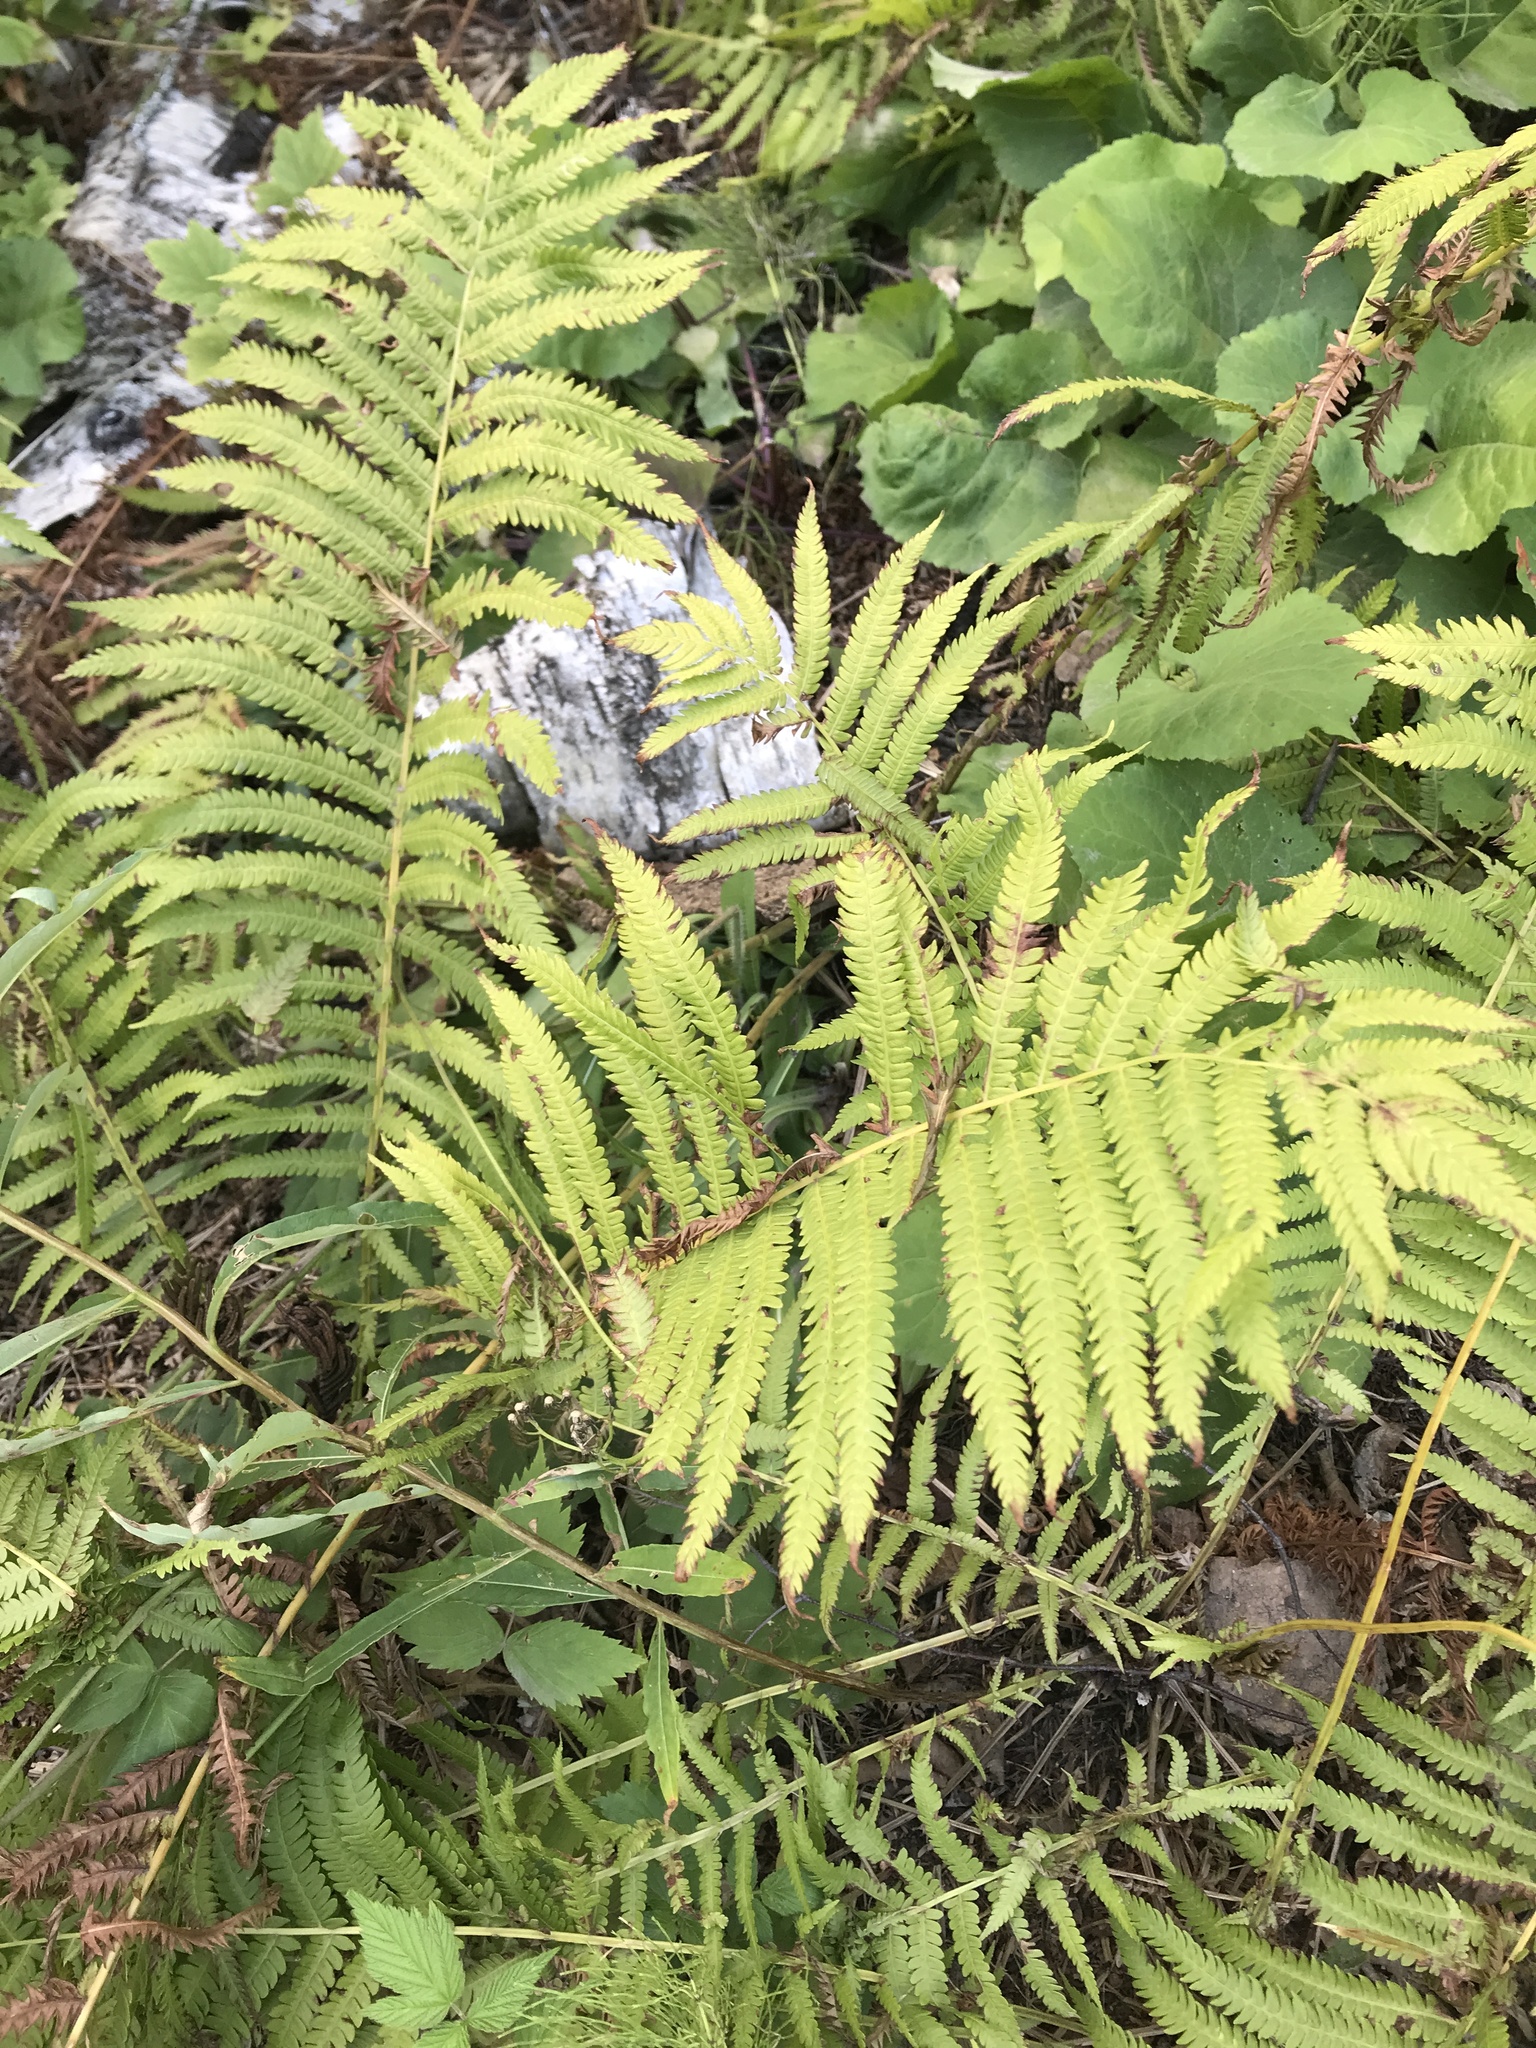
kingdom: Plantae
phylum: Tracheophyta
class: Polypodiopsida
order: Polypodiales
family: Onocleaceae
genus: Matteuccia
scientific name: Matteuccia struthiopteris
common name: Ostrich fern
